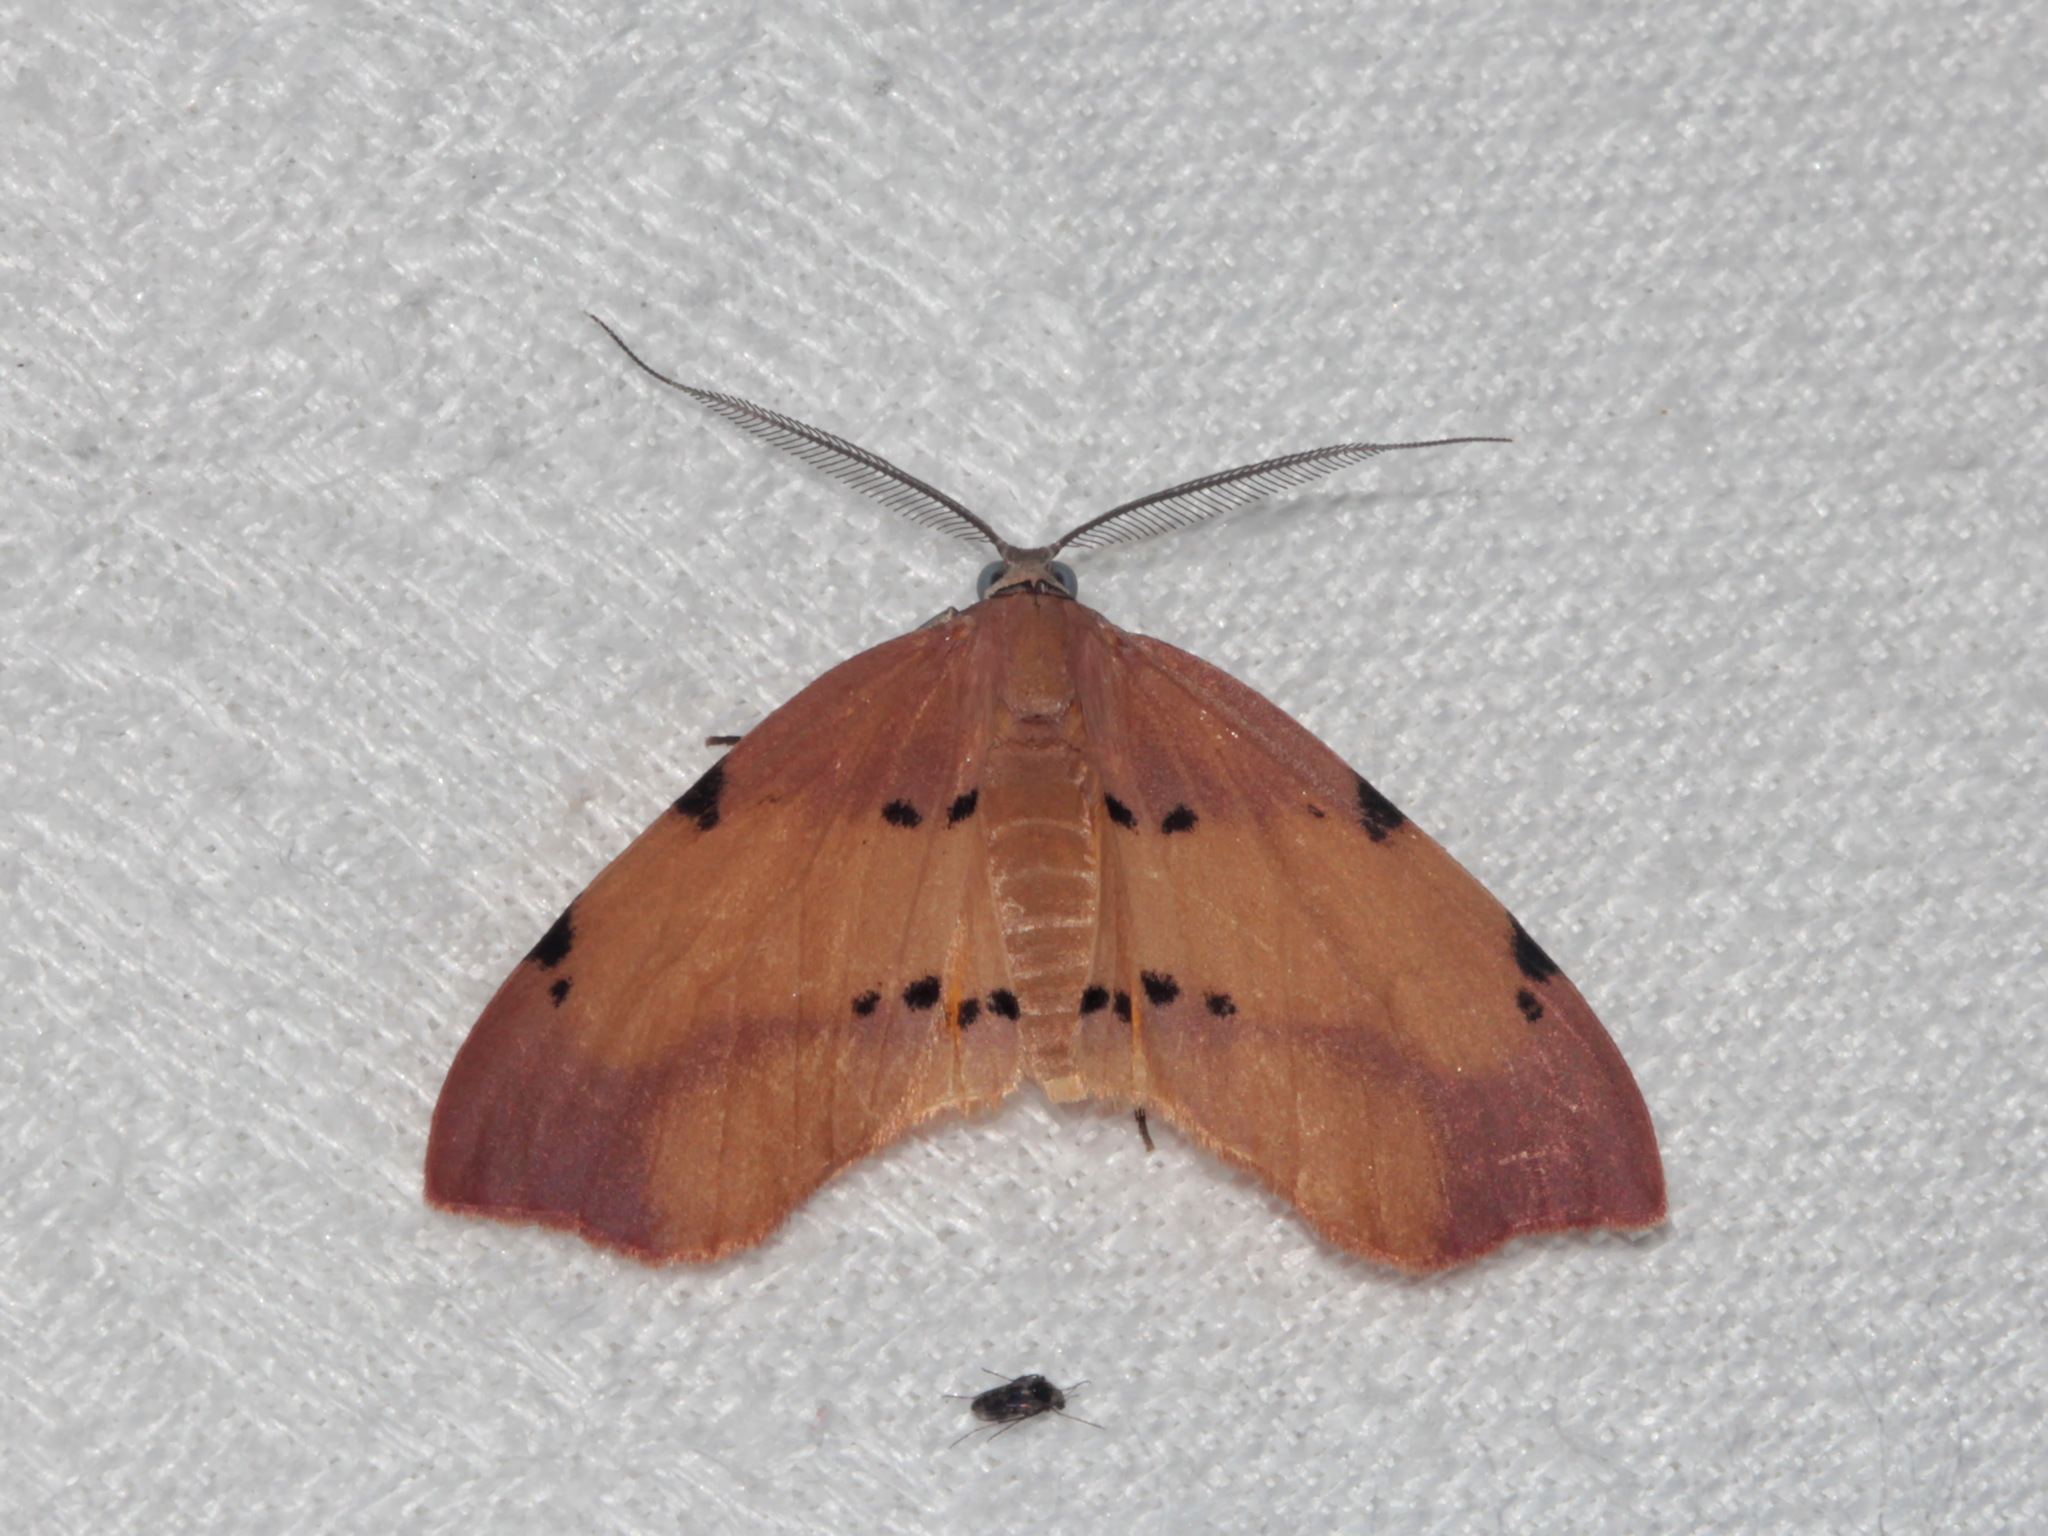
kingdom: Animalia
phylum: Arthropoda
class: Insecta
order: Lepidoptera
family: Geometridae
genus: Achrosis
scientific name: Achrosis lithosiaria
